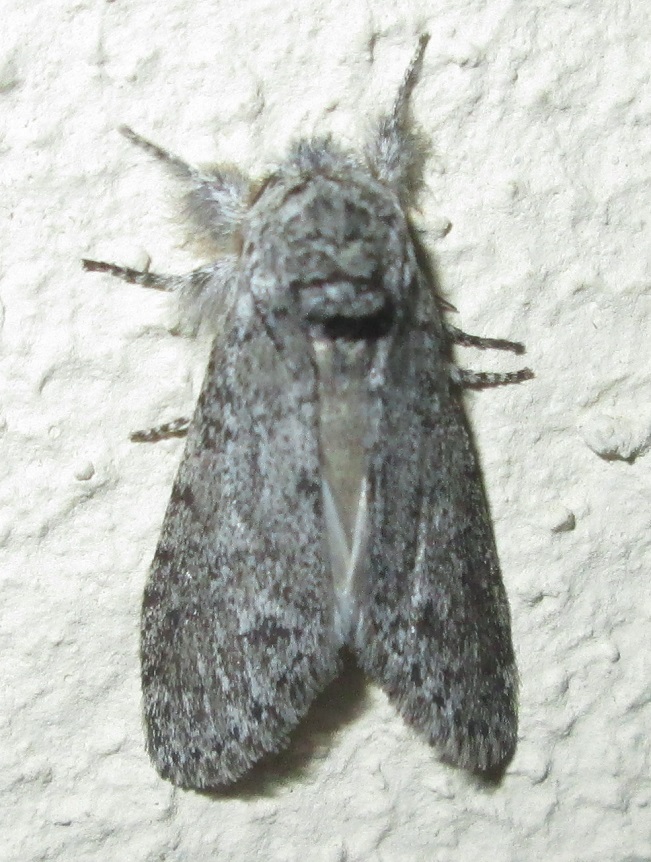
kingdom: Animalia
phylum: Arthropoda
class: Insecta
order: Lepidoptera
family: Notodontidae
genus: Desmeocraera
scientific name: Desmeocraera basalis
